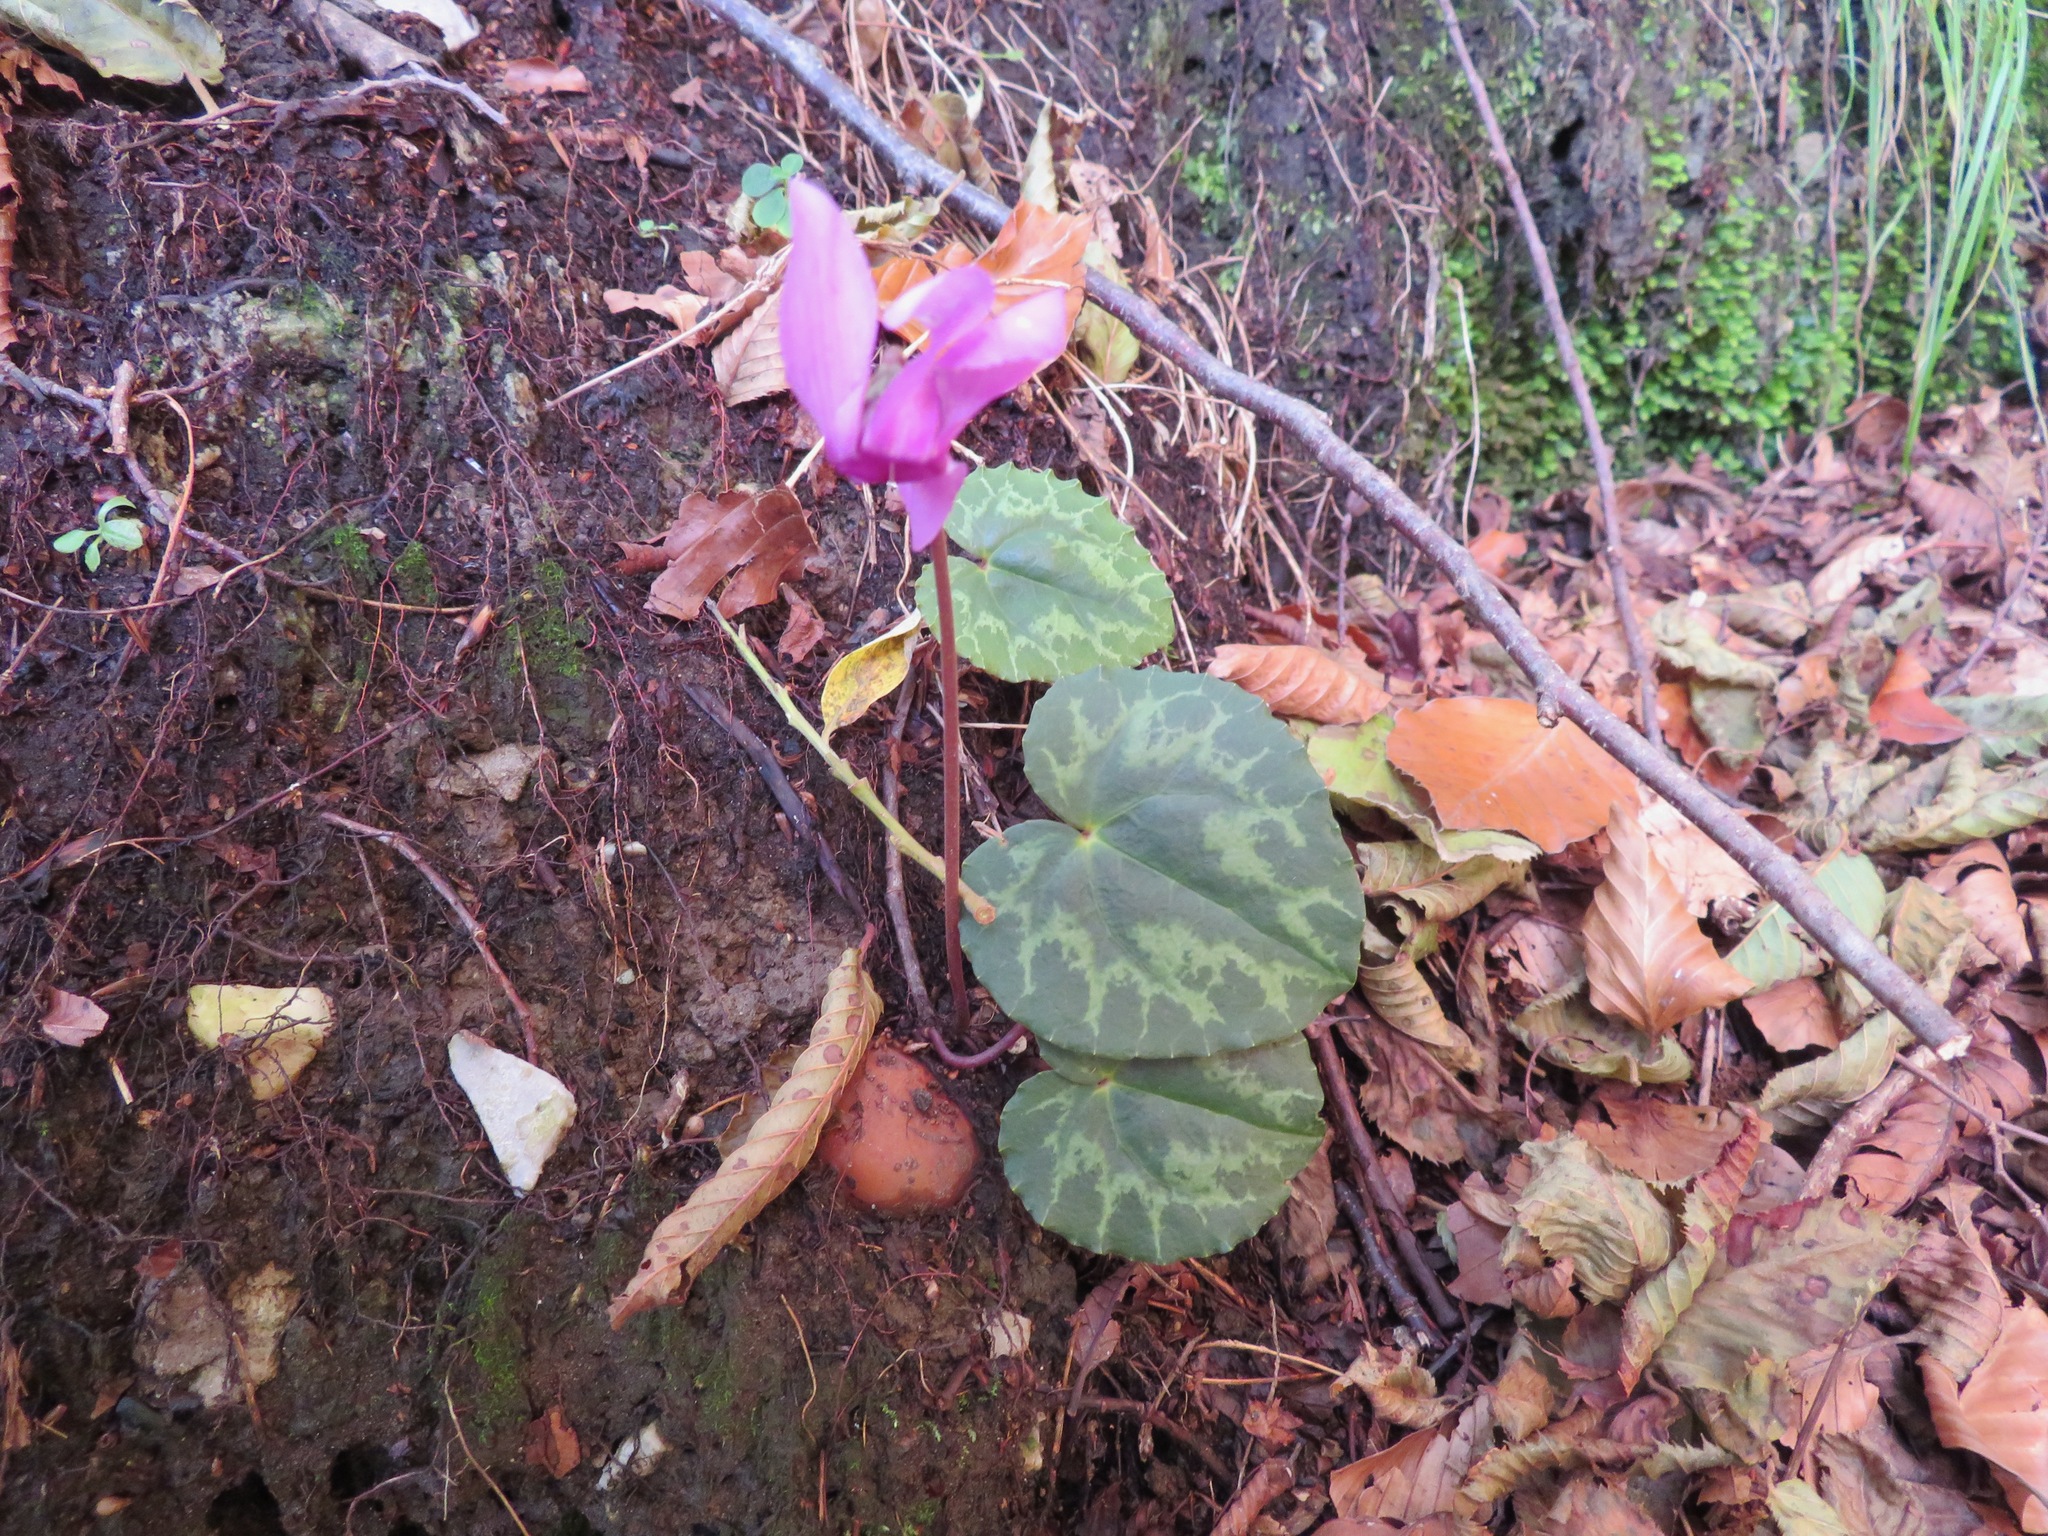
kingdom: Plantae
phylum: Tracheophyta
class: Magnoliopsida
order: Ericales
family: Primulaceae
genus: Cyclamen
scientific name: Cyclamen purpurascens
